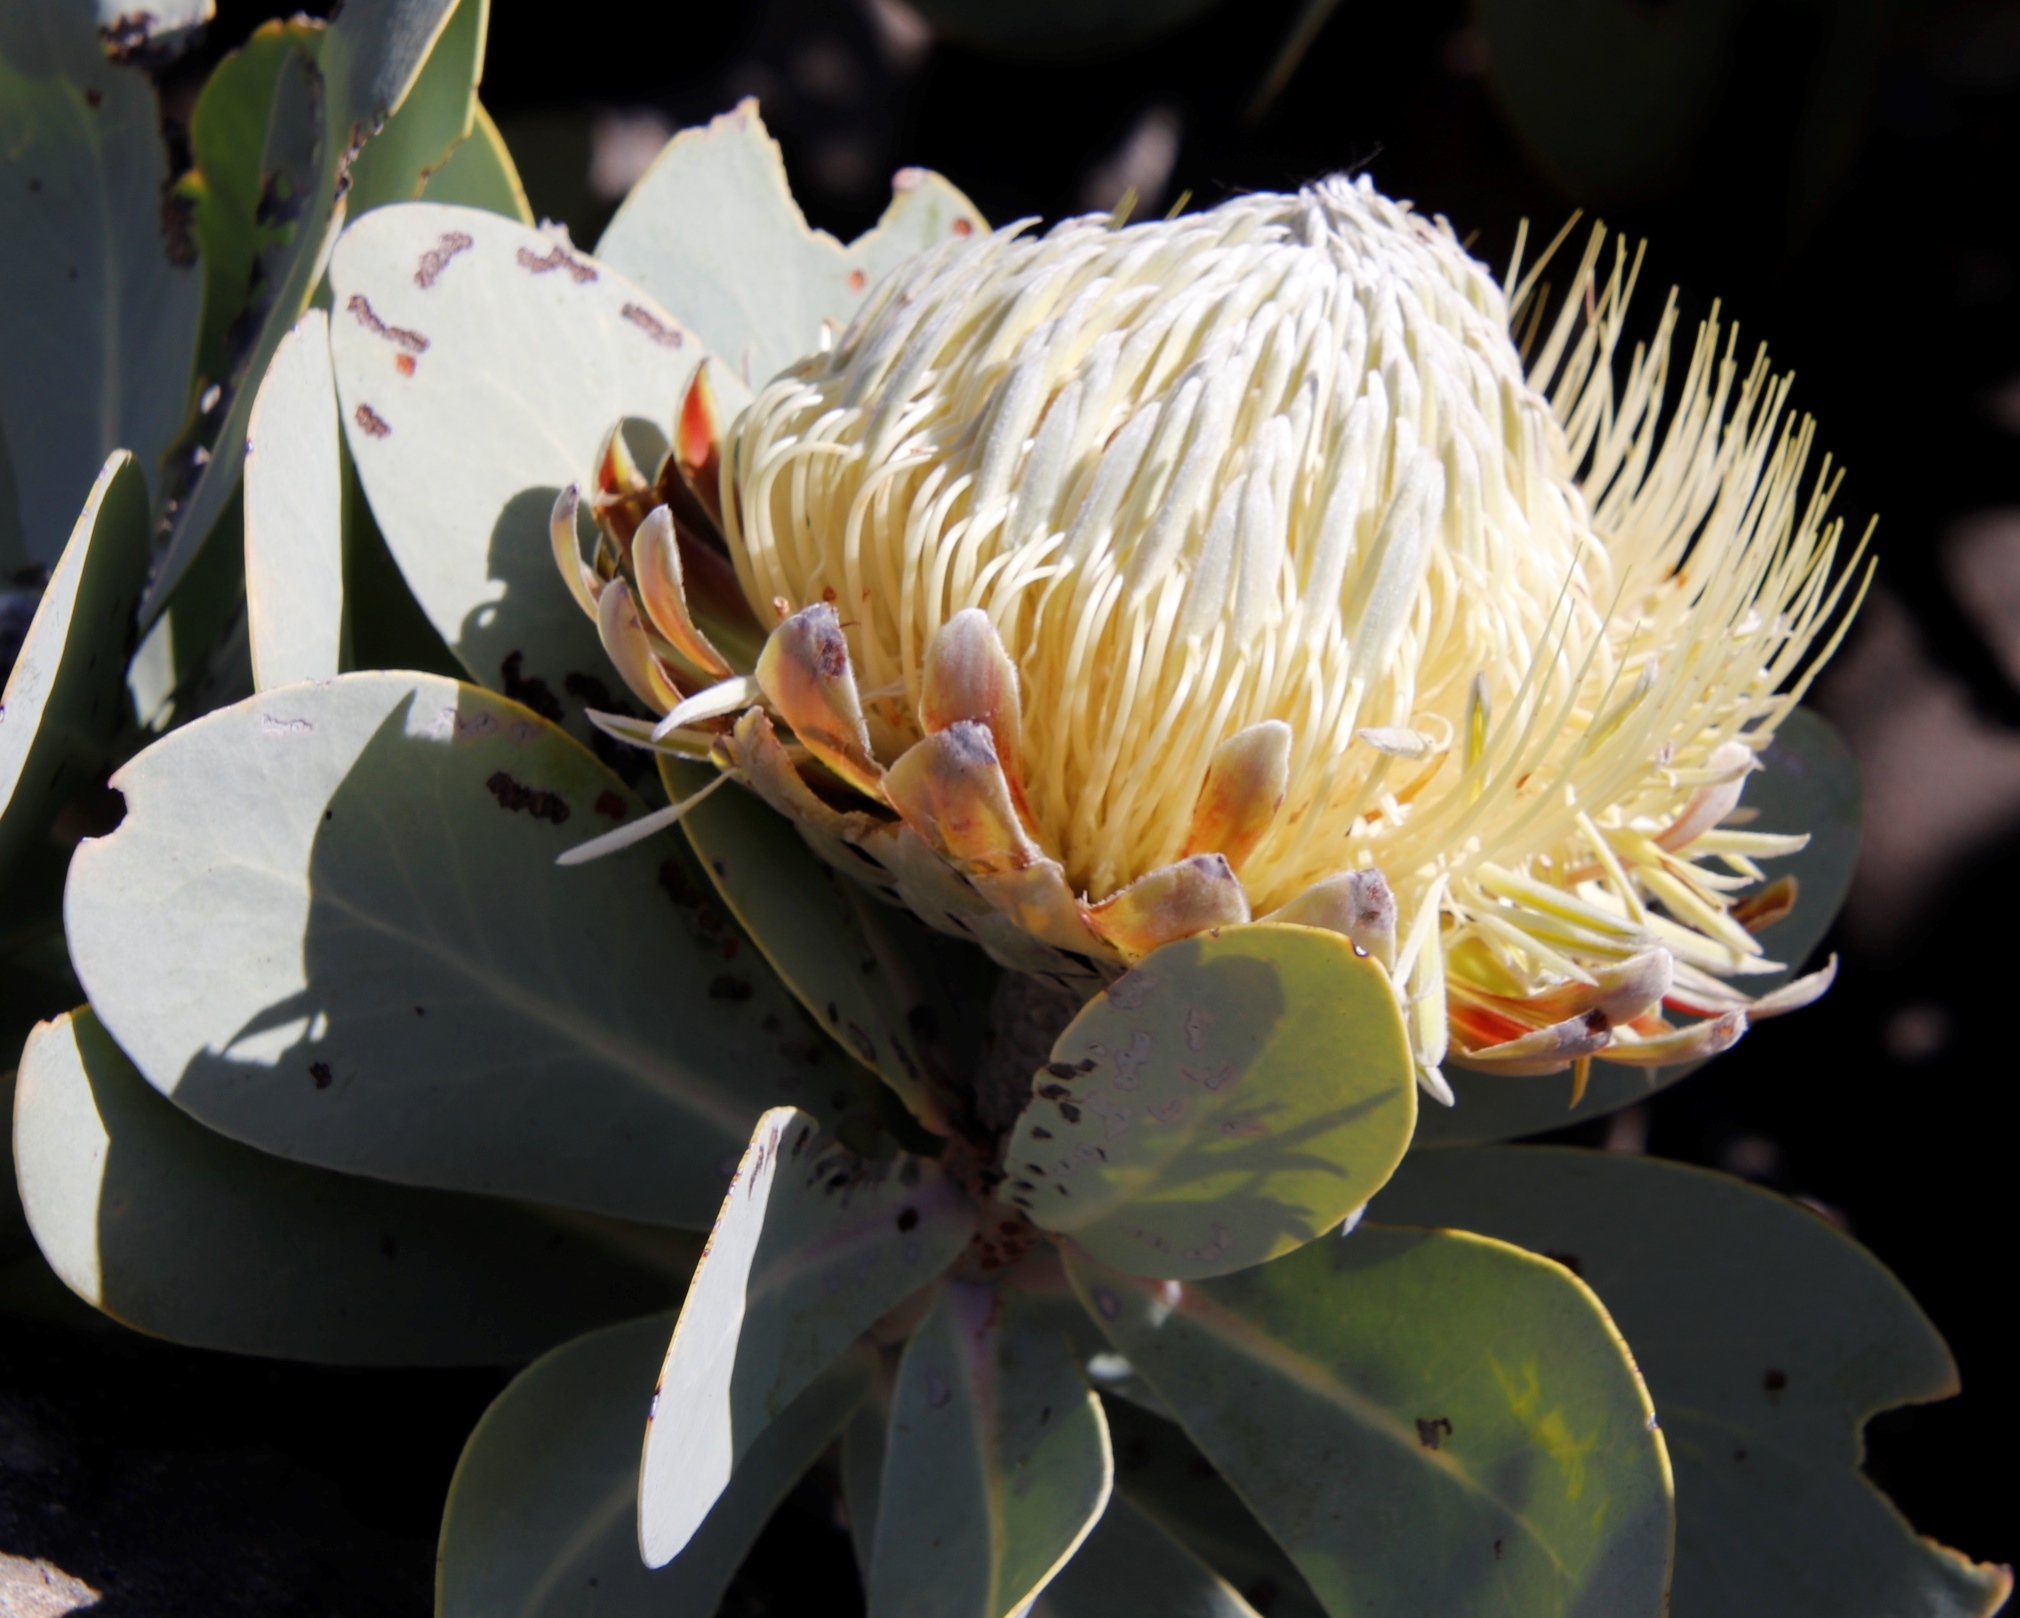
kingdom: Plantae
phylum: Tracheophyta
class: Magnoliopsida
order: Proteales
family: Proteaceae
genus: Protea
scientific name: Protea nitida
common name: Tree protea
